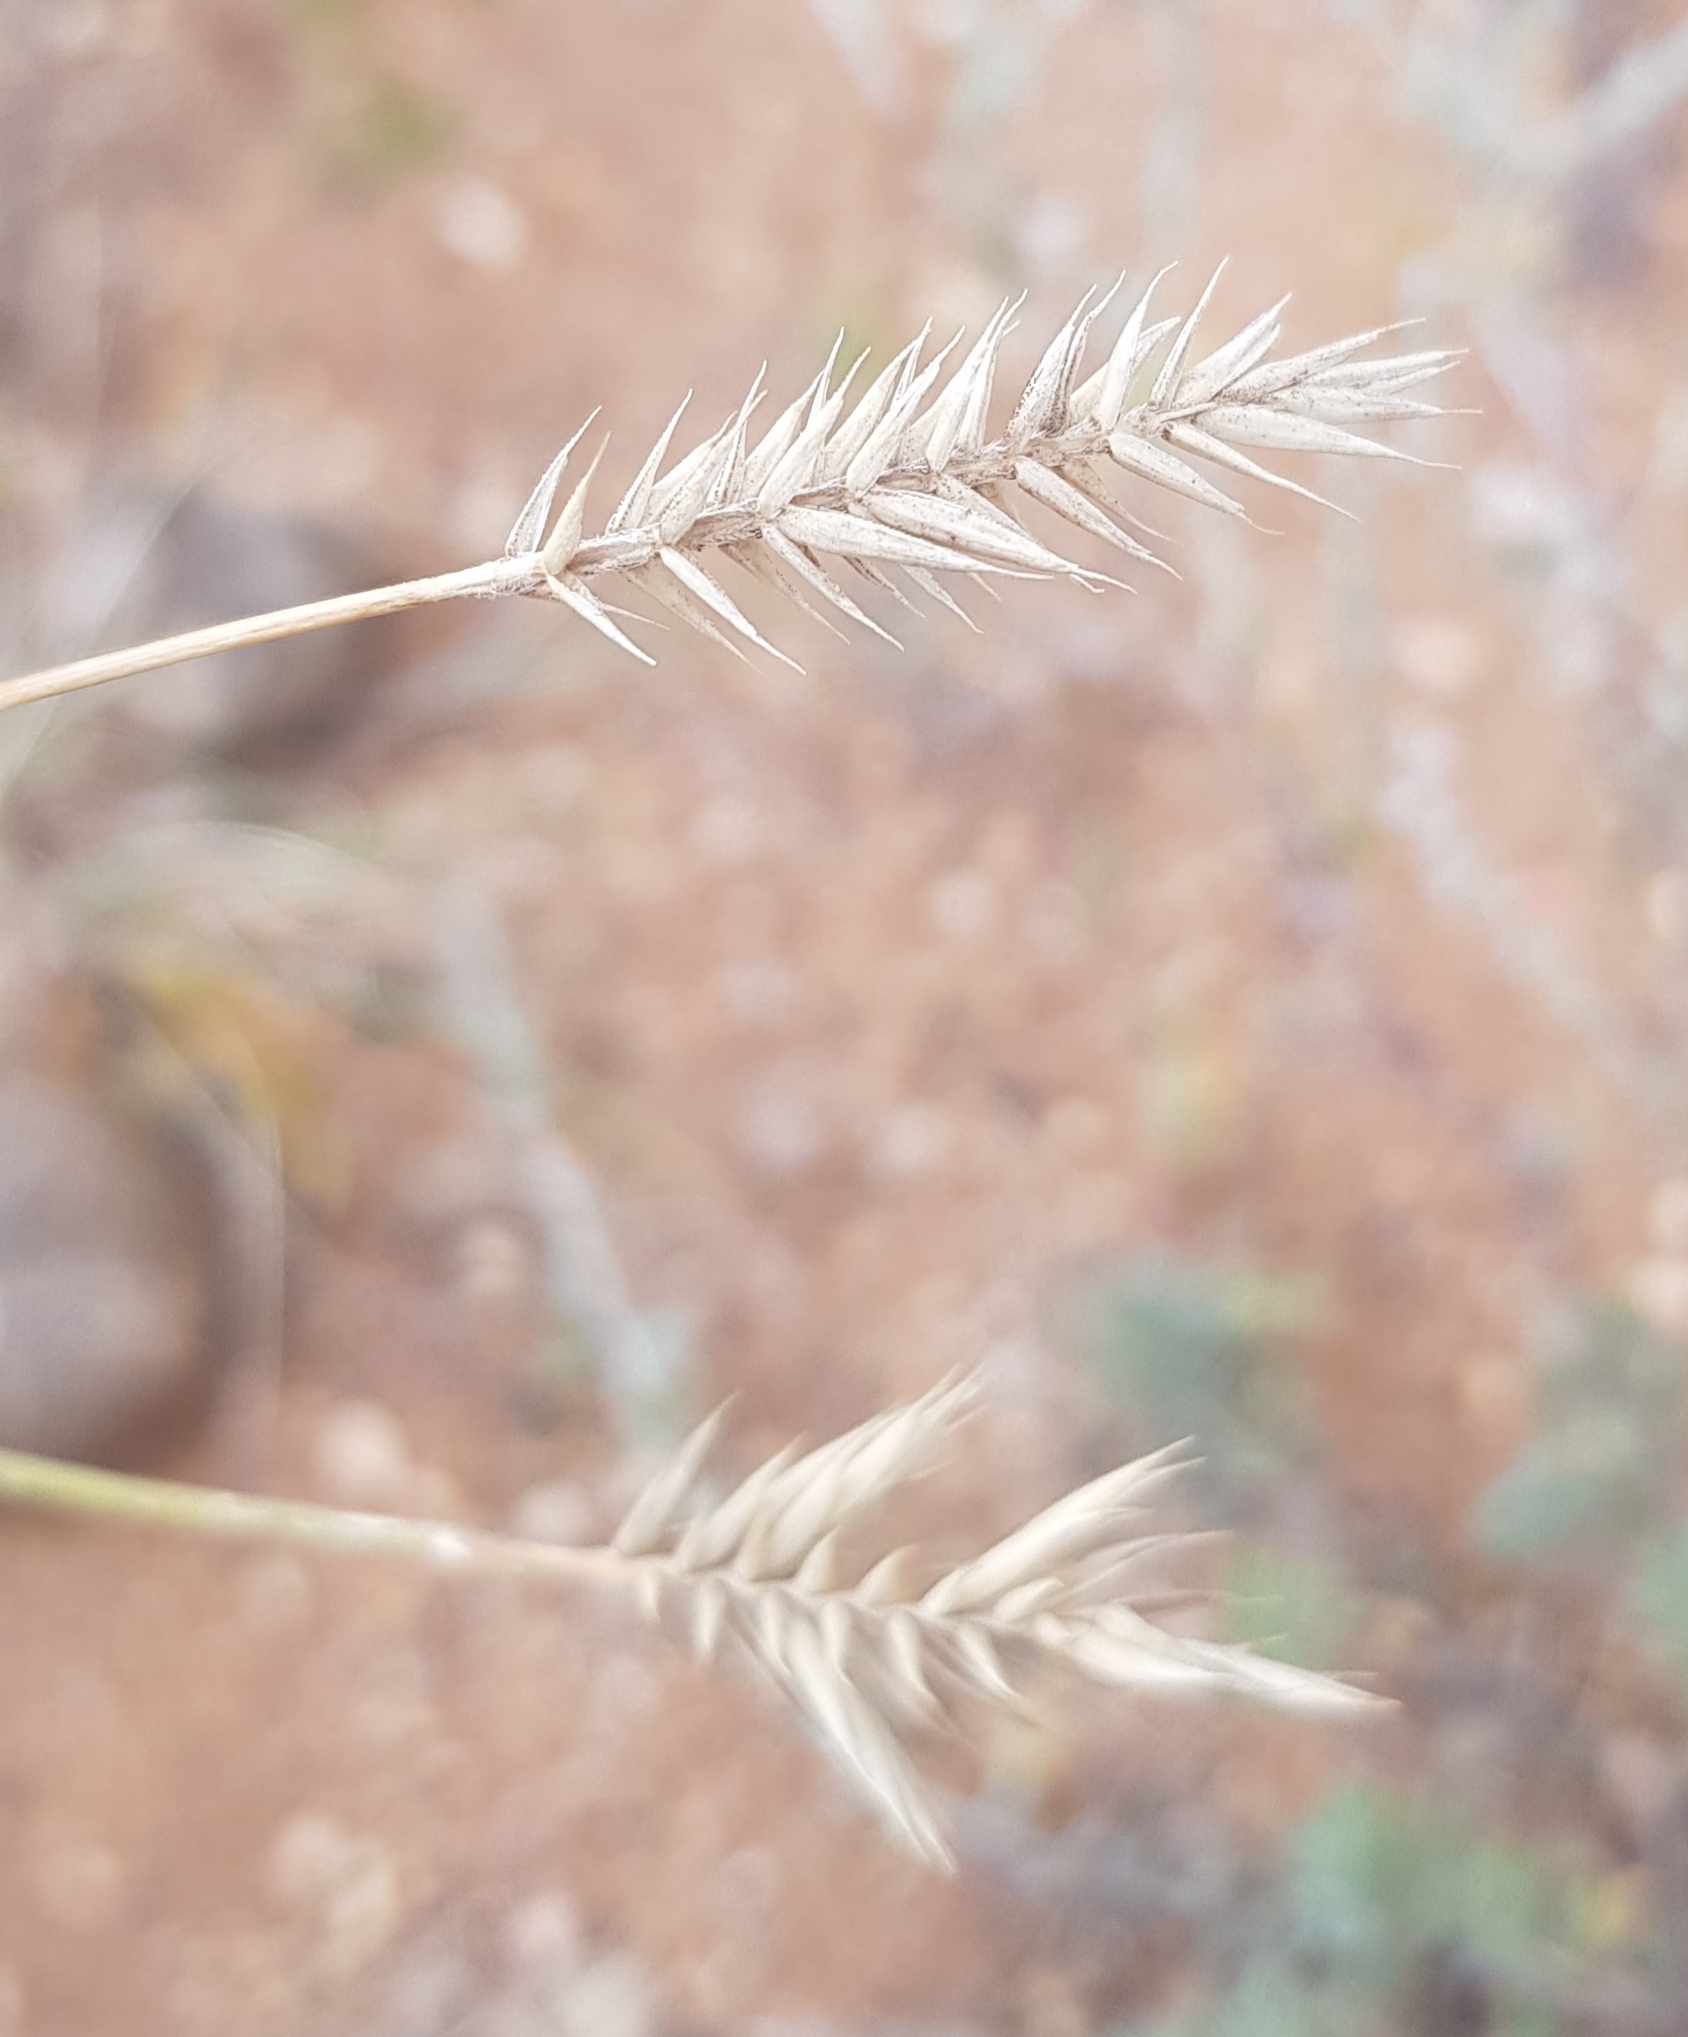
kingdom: Plantae
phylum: Tracheophyta
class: Liliopsida
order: Poales
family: Poaceae
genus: Agropyron
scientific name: Agropyron cristatum
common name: Crested wheatgrass
